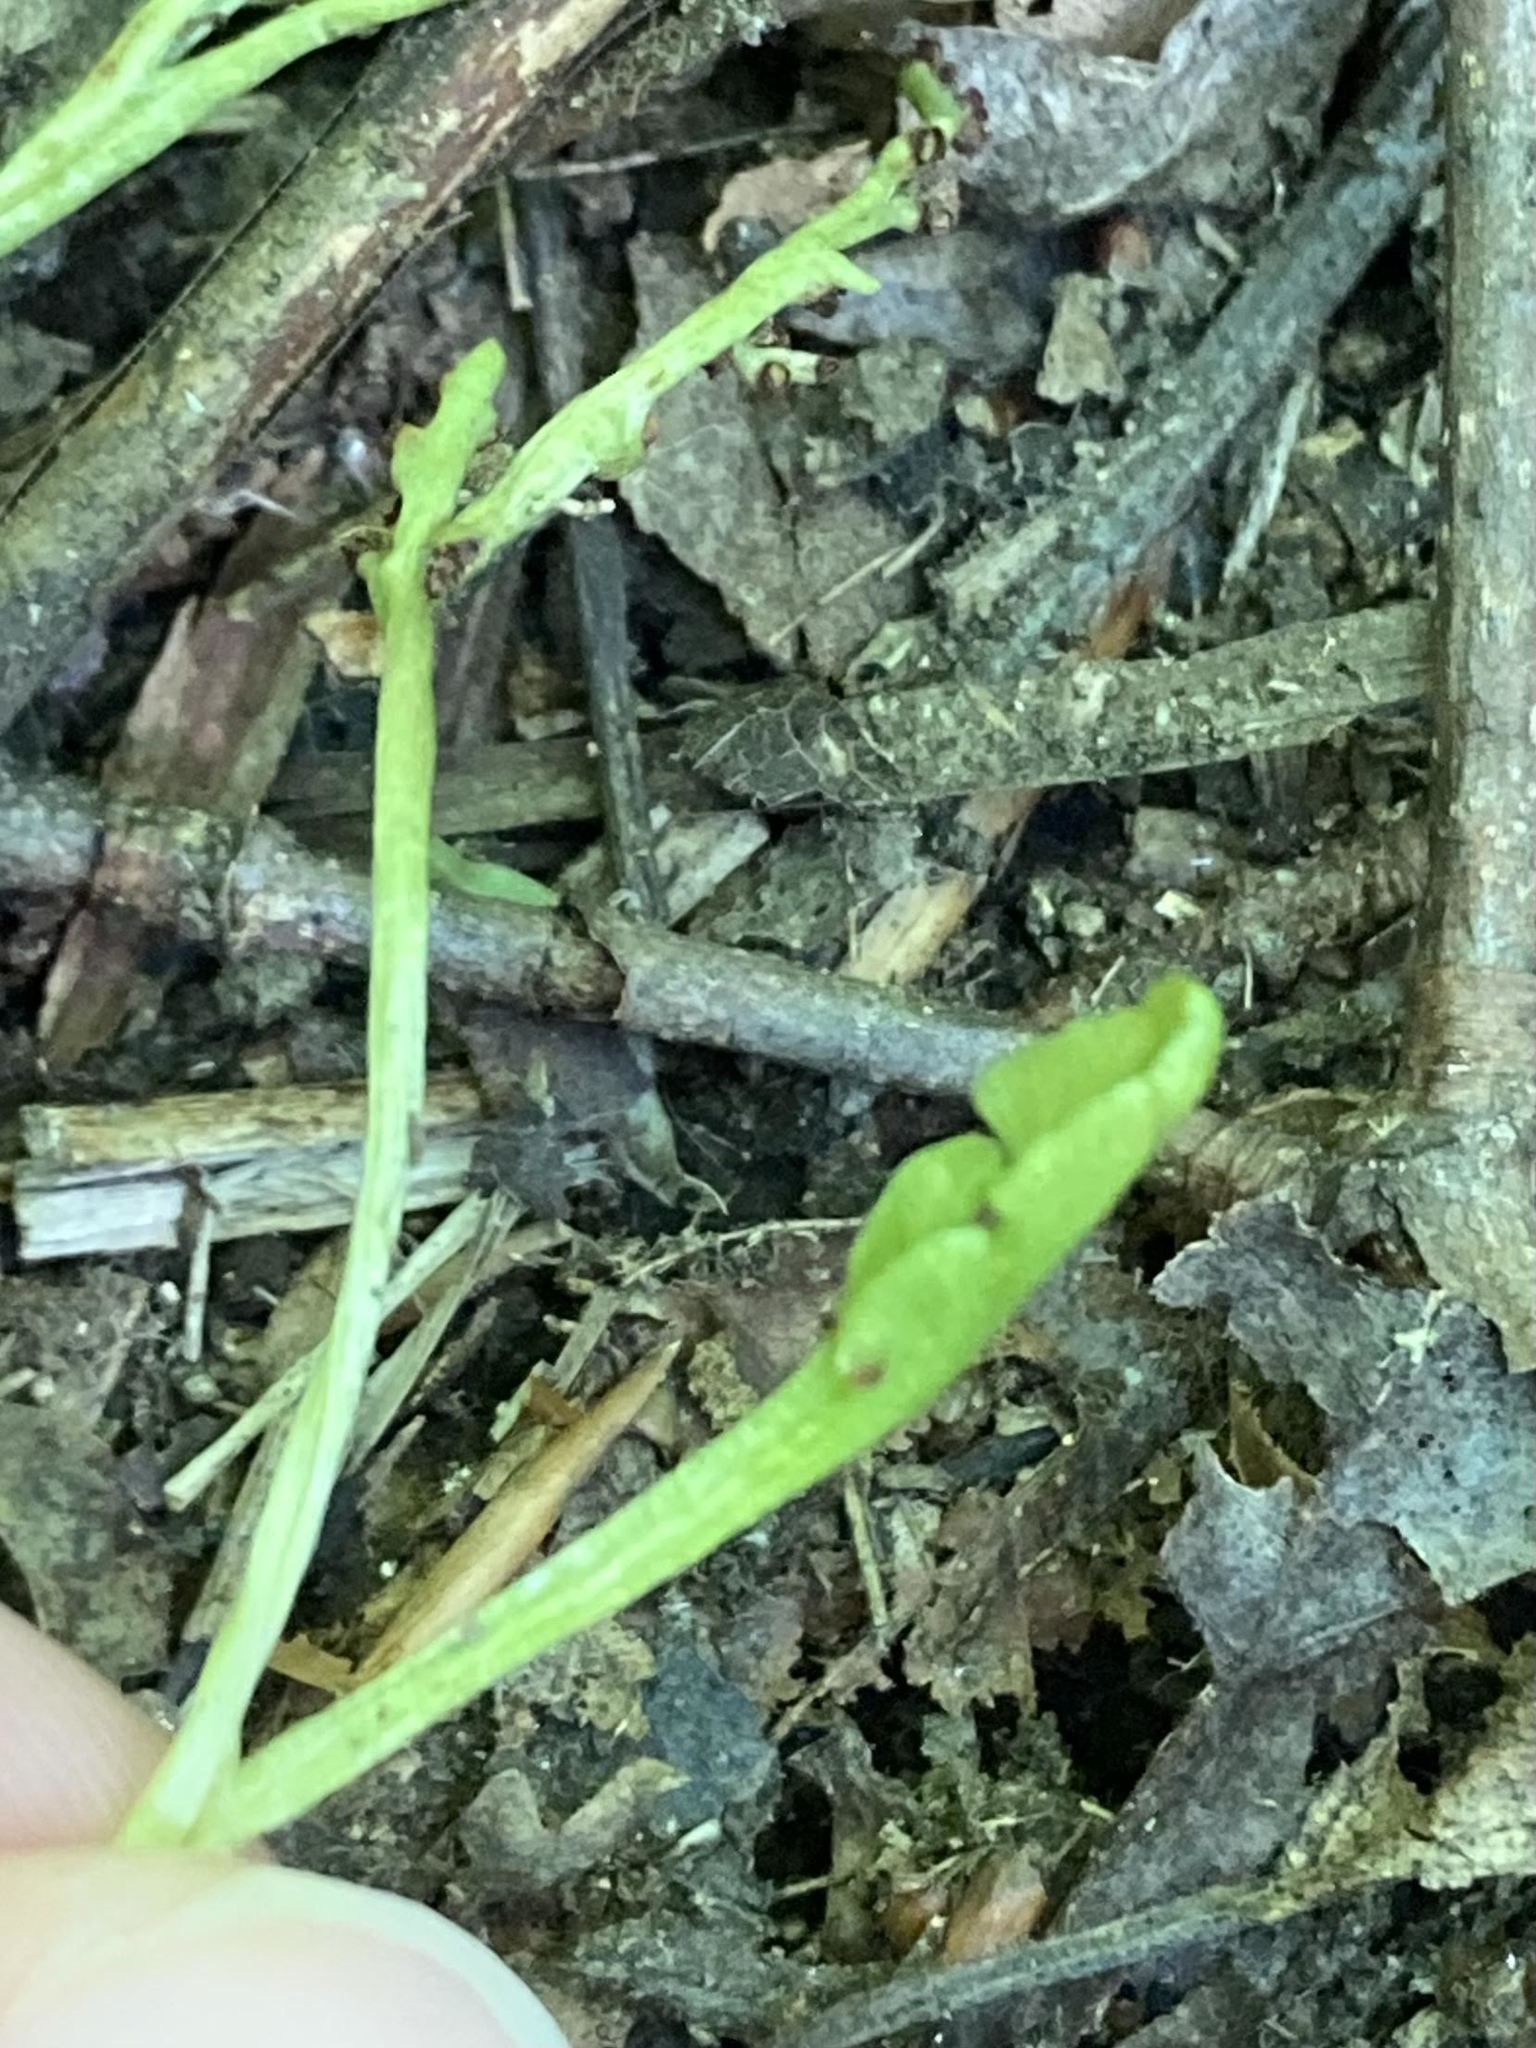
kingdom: Plantae
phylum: Tracheophyta
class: Polypodiopsida
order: Ophioglossales
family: Ophioglossaceae
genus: Botrychium
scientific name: Botrychium tenebrosum
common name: Shade moonwort
